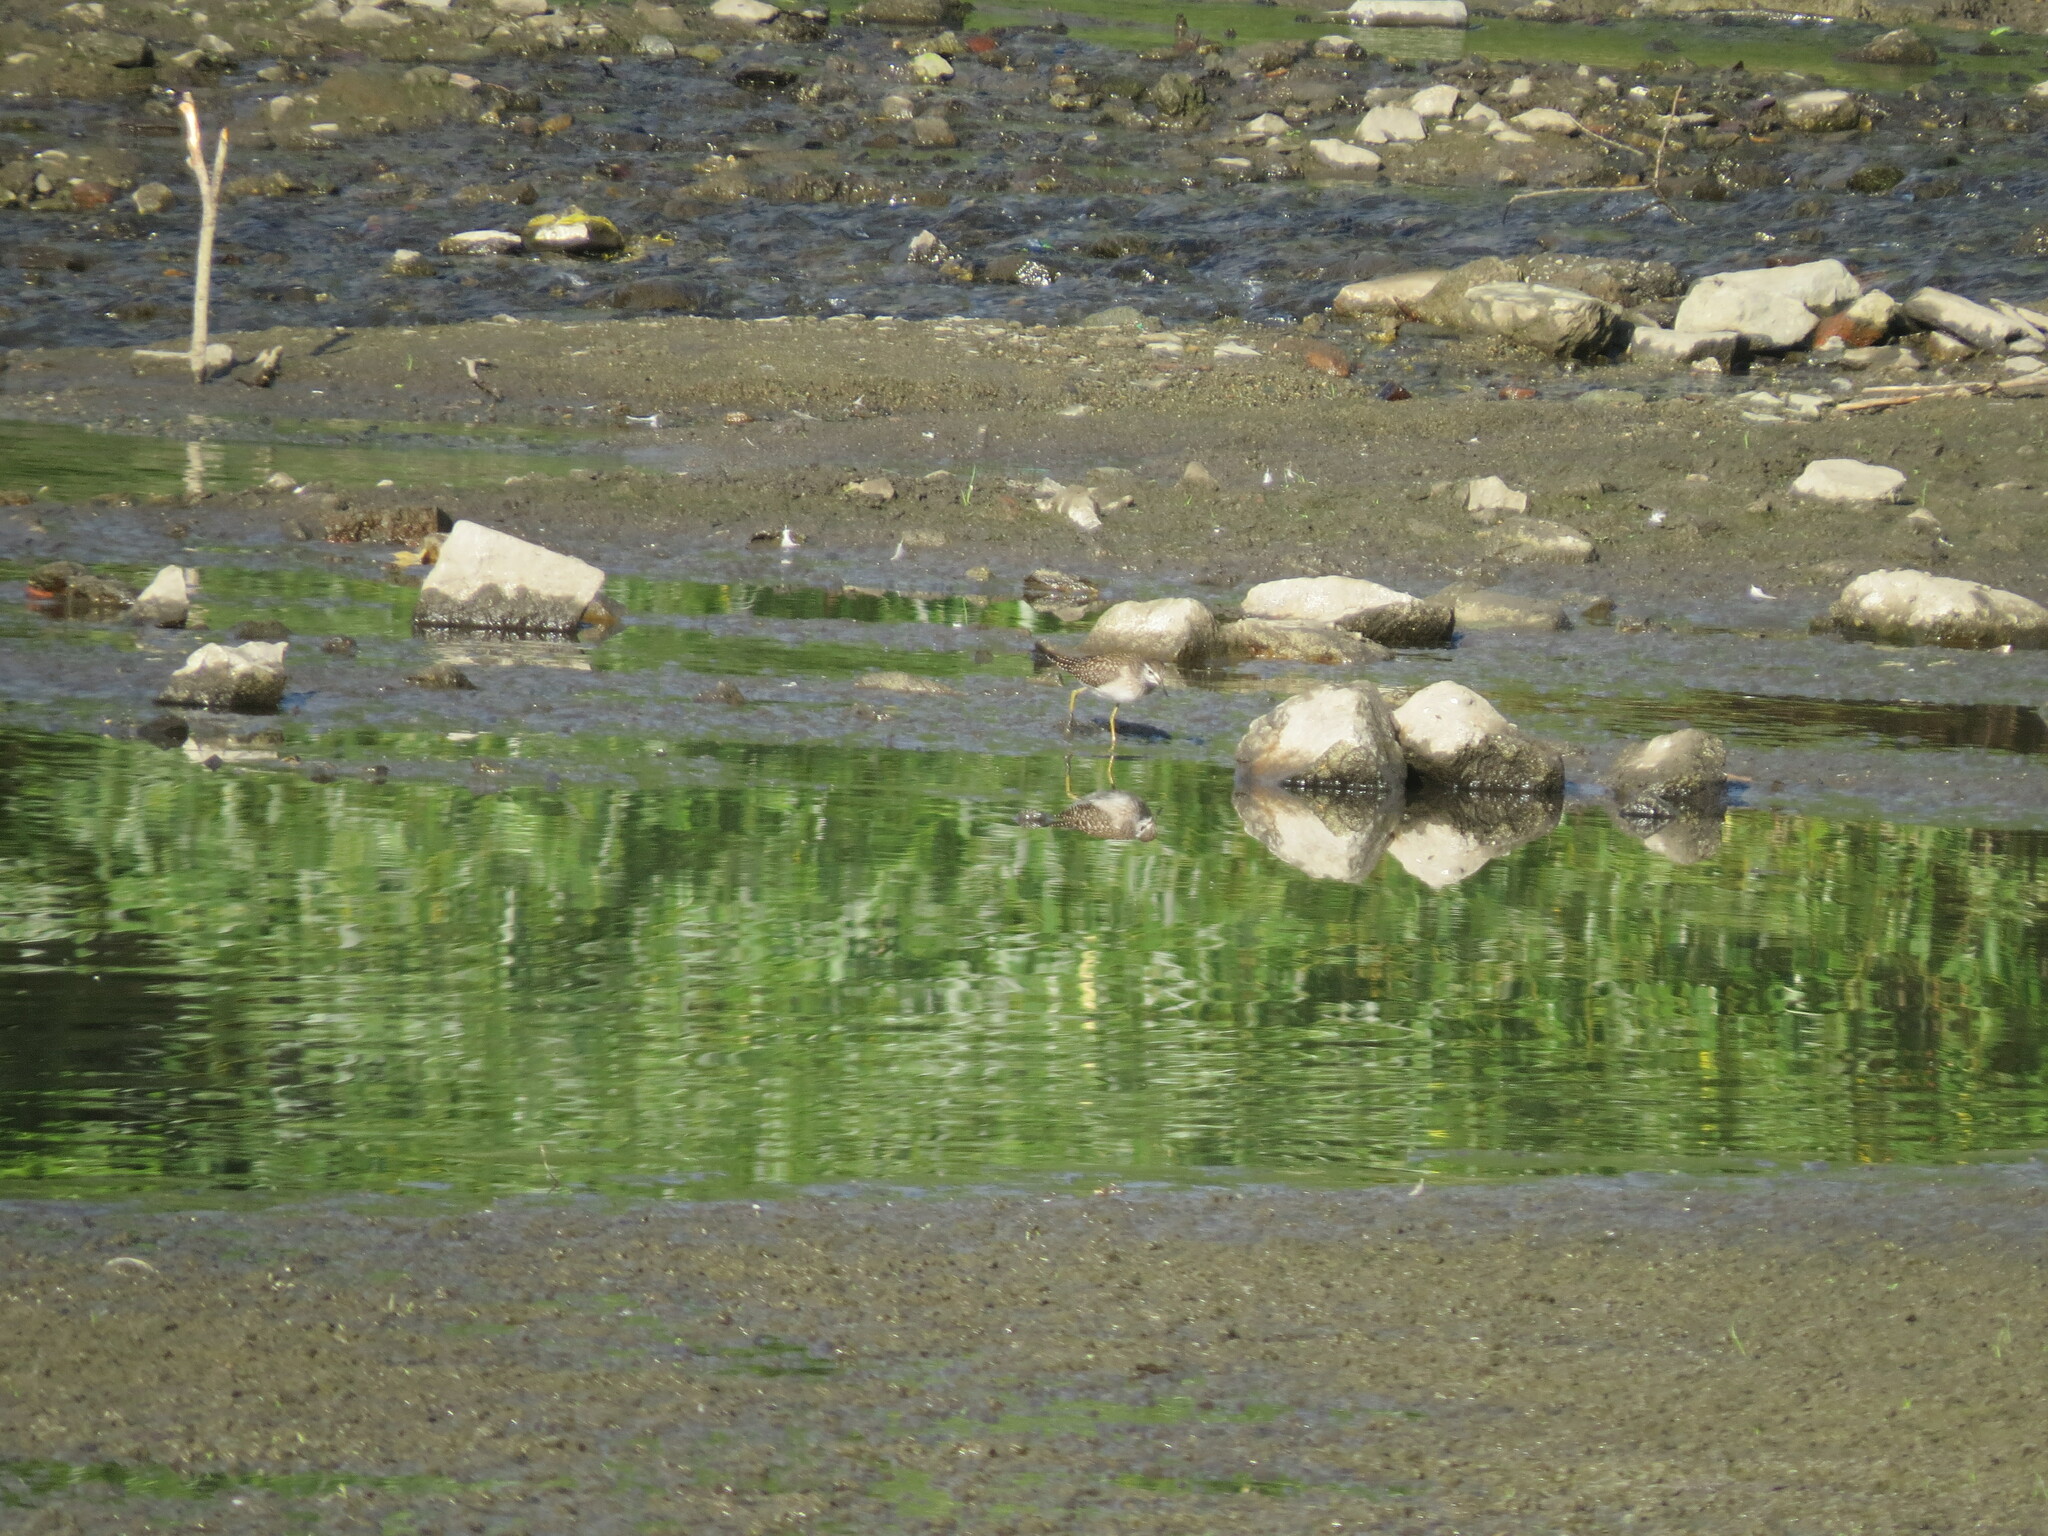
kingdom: Animalia
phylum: Chordata
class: Aves
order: Charadriiformes
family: Scolopacidae
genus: Tringa
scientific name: Tringa glareola
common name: Wood sandpiper
